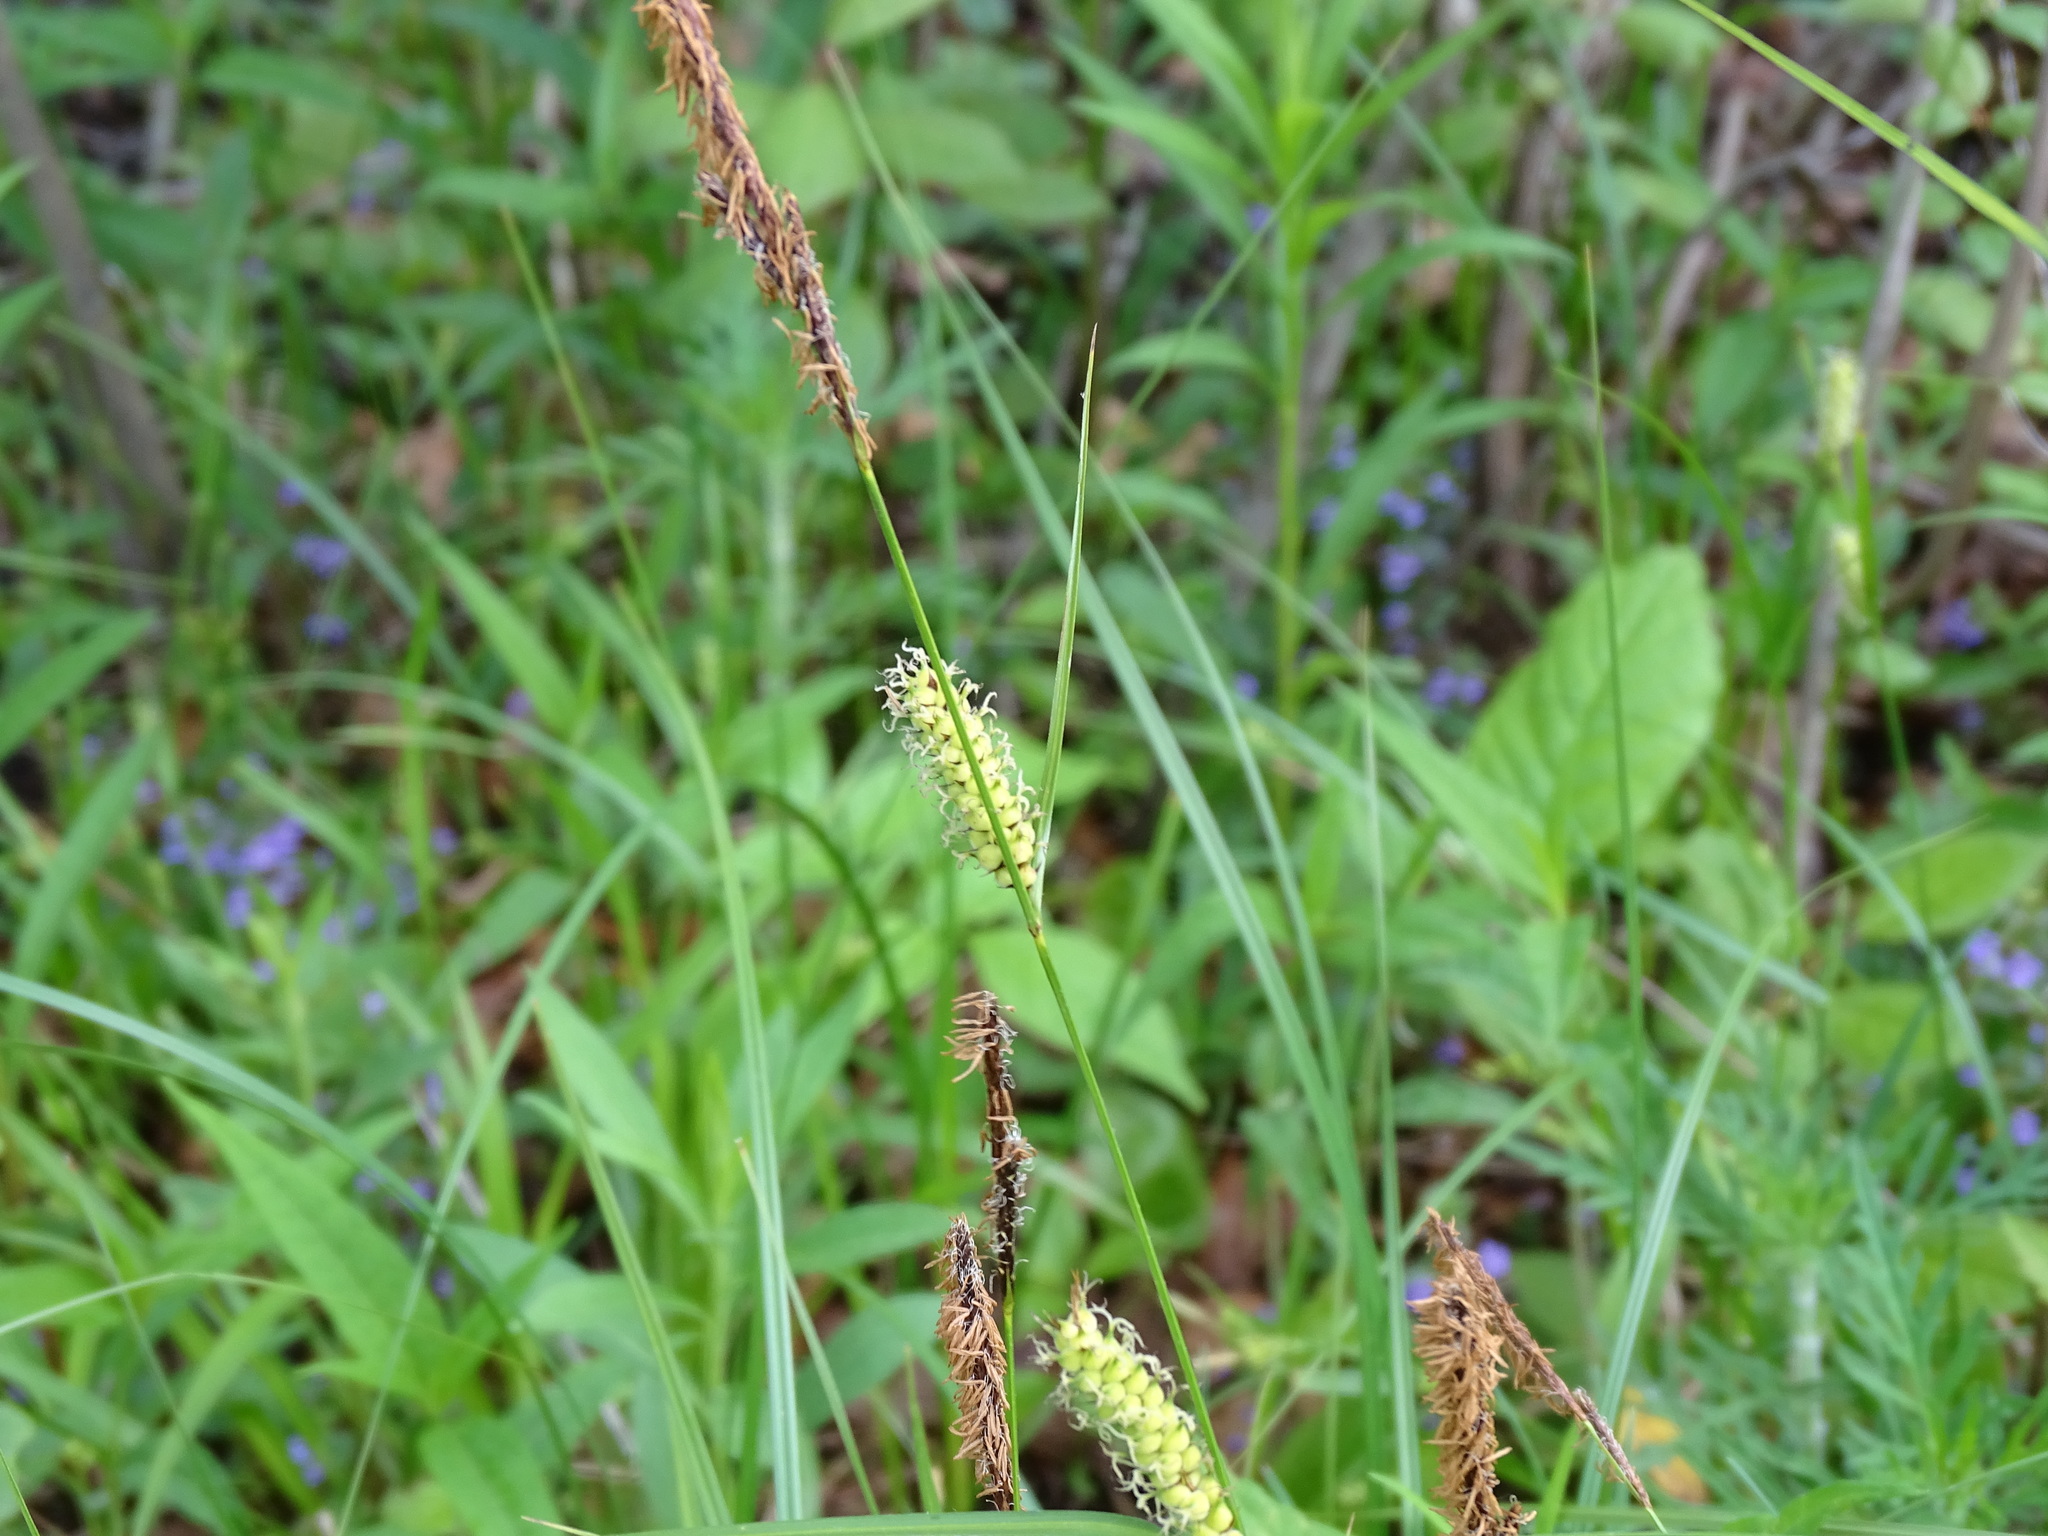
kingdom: Plantae
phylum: Tracheophyta
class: Liliopsida
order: Poales
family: Cyperaceae
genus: Carex
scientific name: Carex pellita
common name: Woolly sedge
